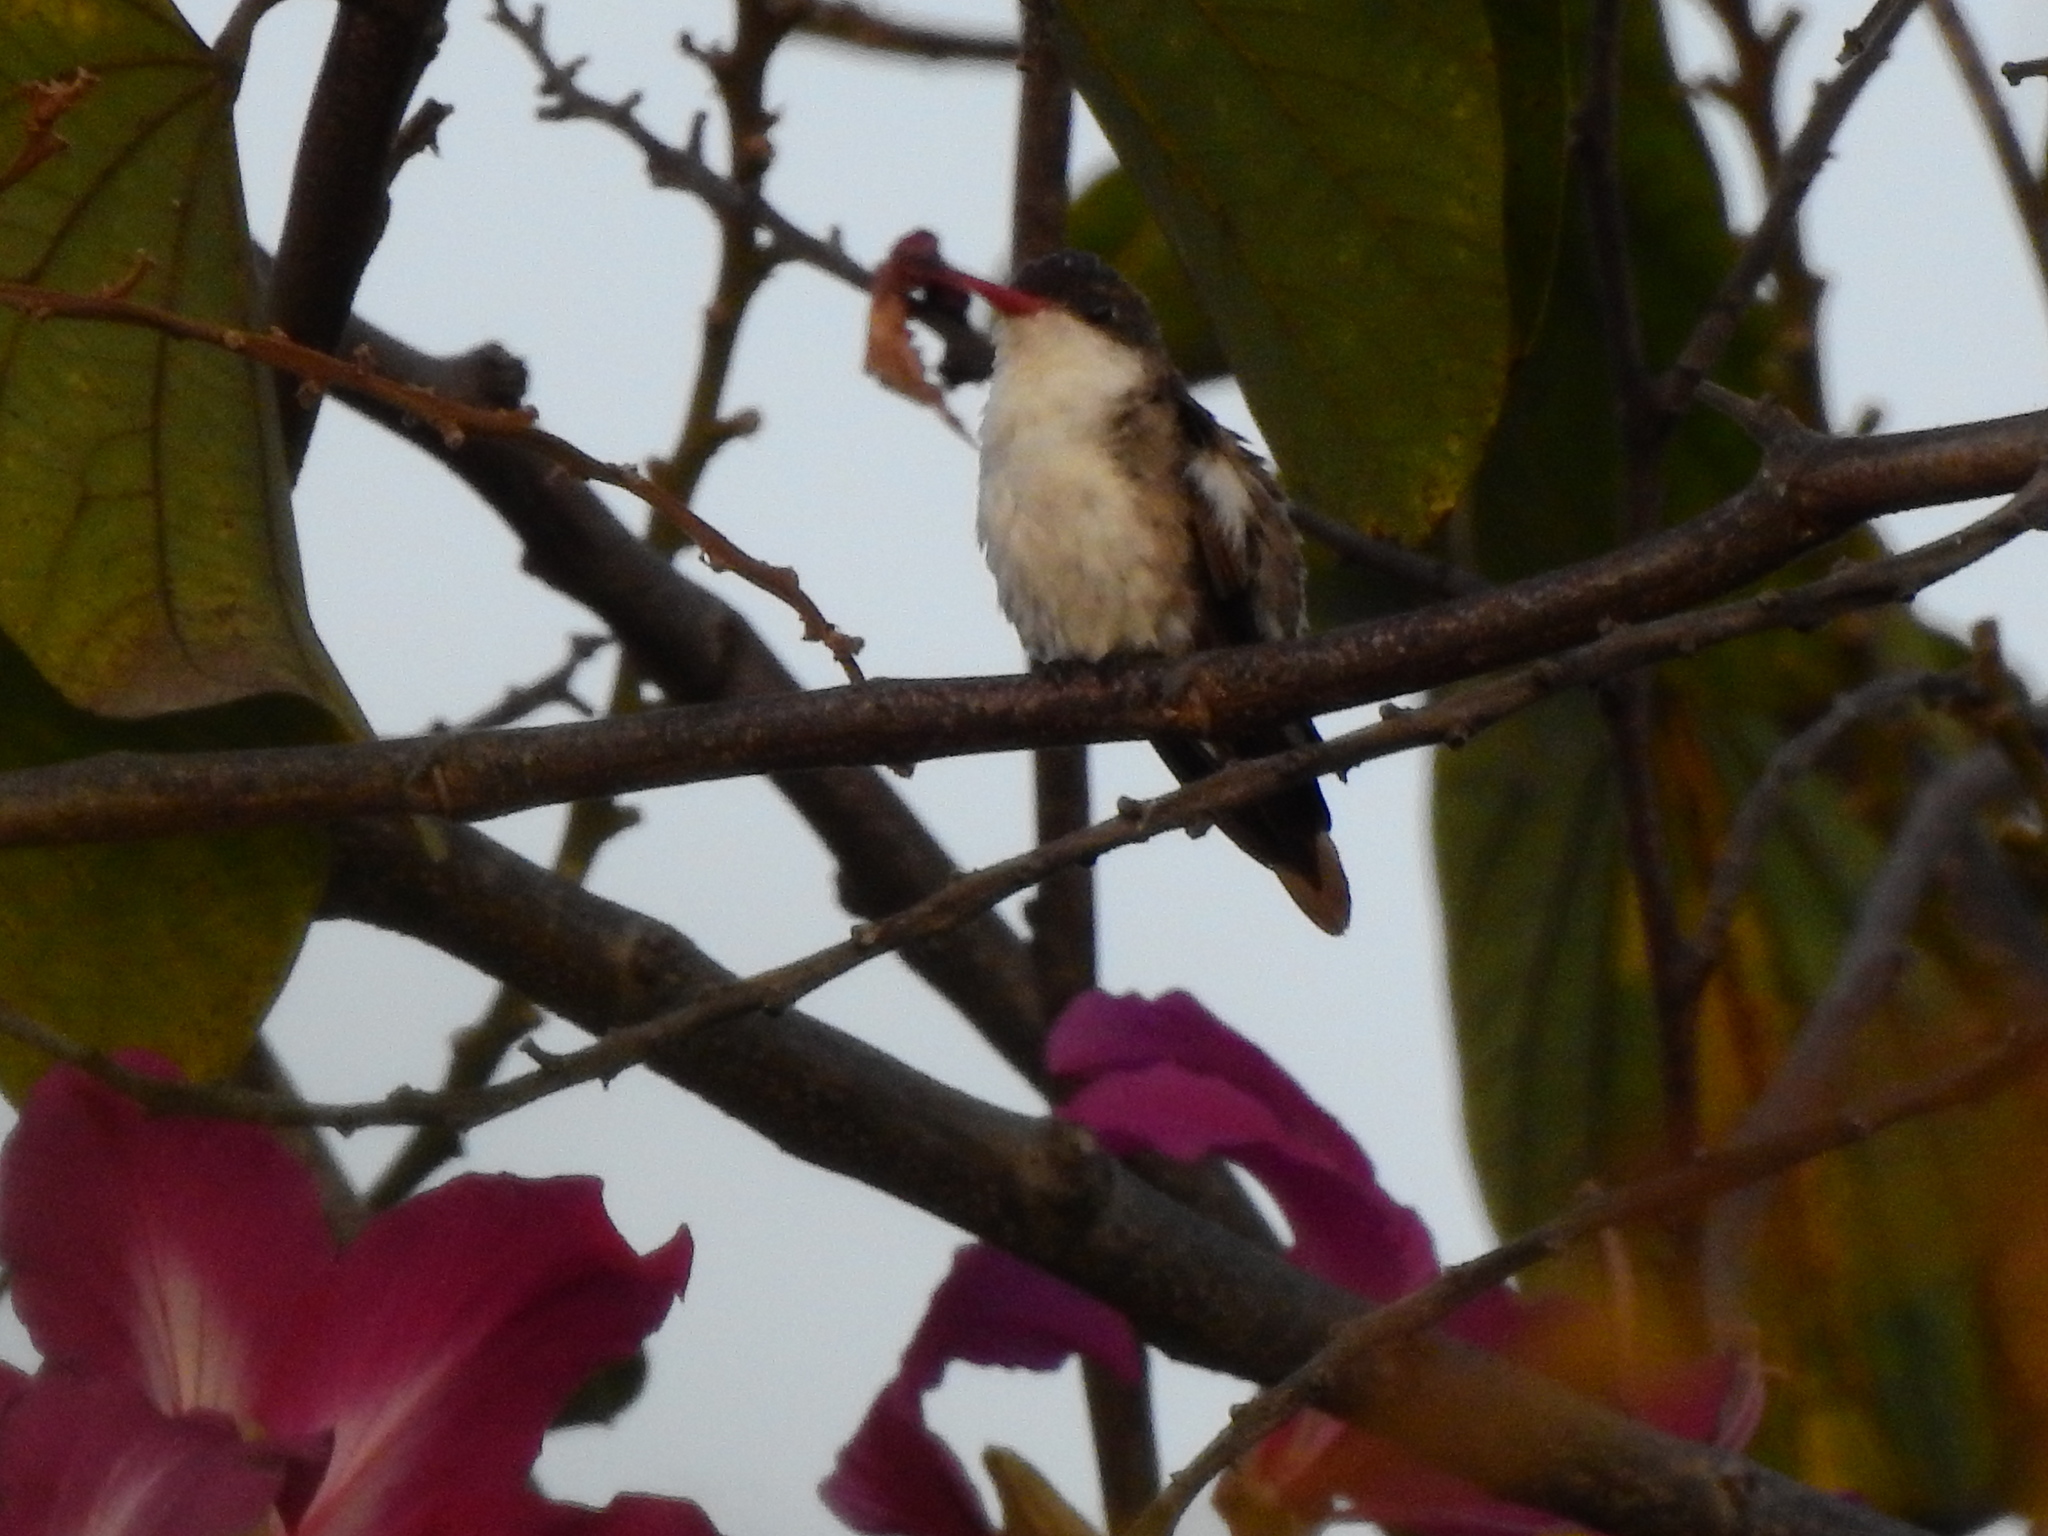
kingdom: Animalia
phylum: Chordata
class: Aves
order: Apodiformes
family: Trochilidae
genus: Leucolia
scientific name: Leucolia violiceps
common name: Violet-crowned hummingbird
